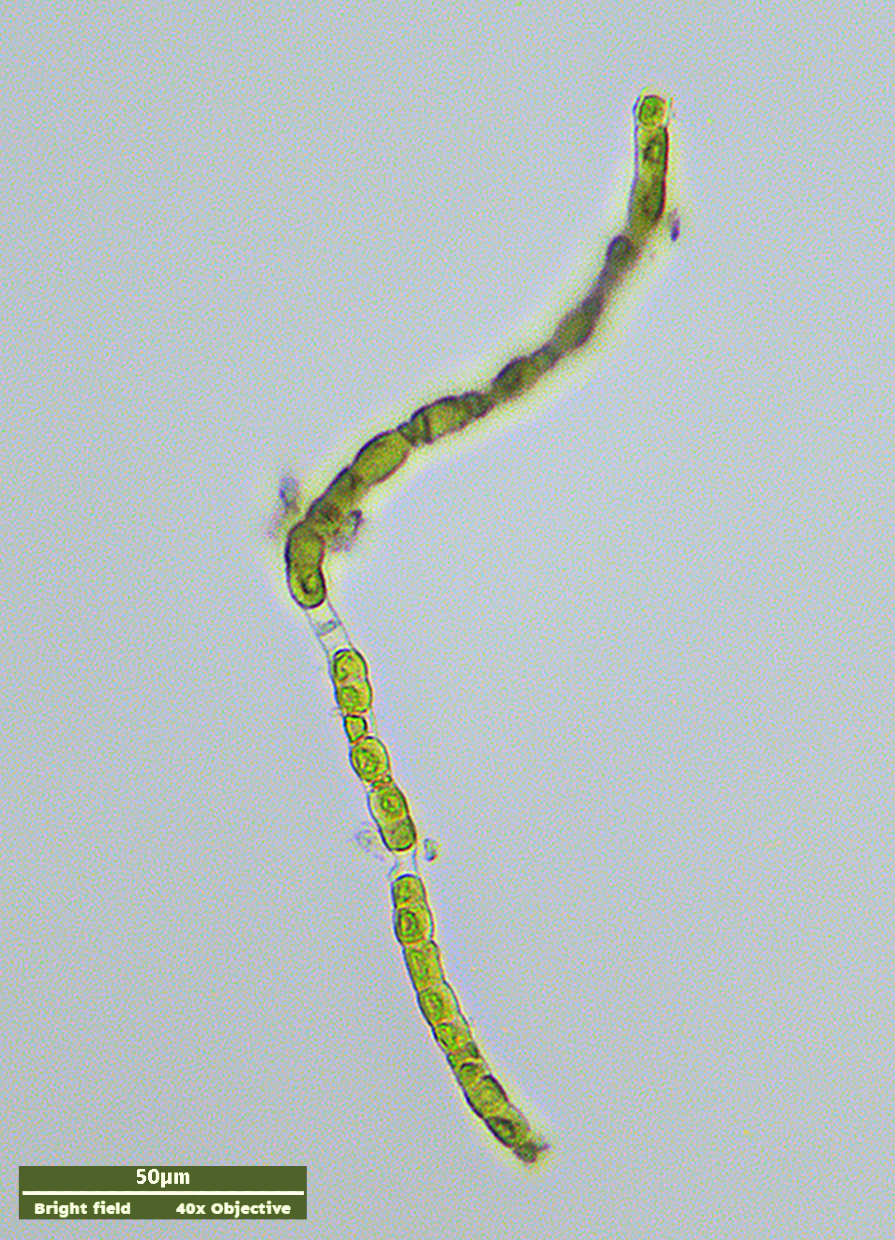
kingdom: Plantae
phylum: Charophyta
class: Klebsormidiophyceae
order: Klebsormidiales
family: Klebsormidiaceae
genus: Klebsormidium
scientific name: Klebsormidium
